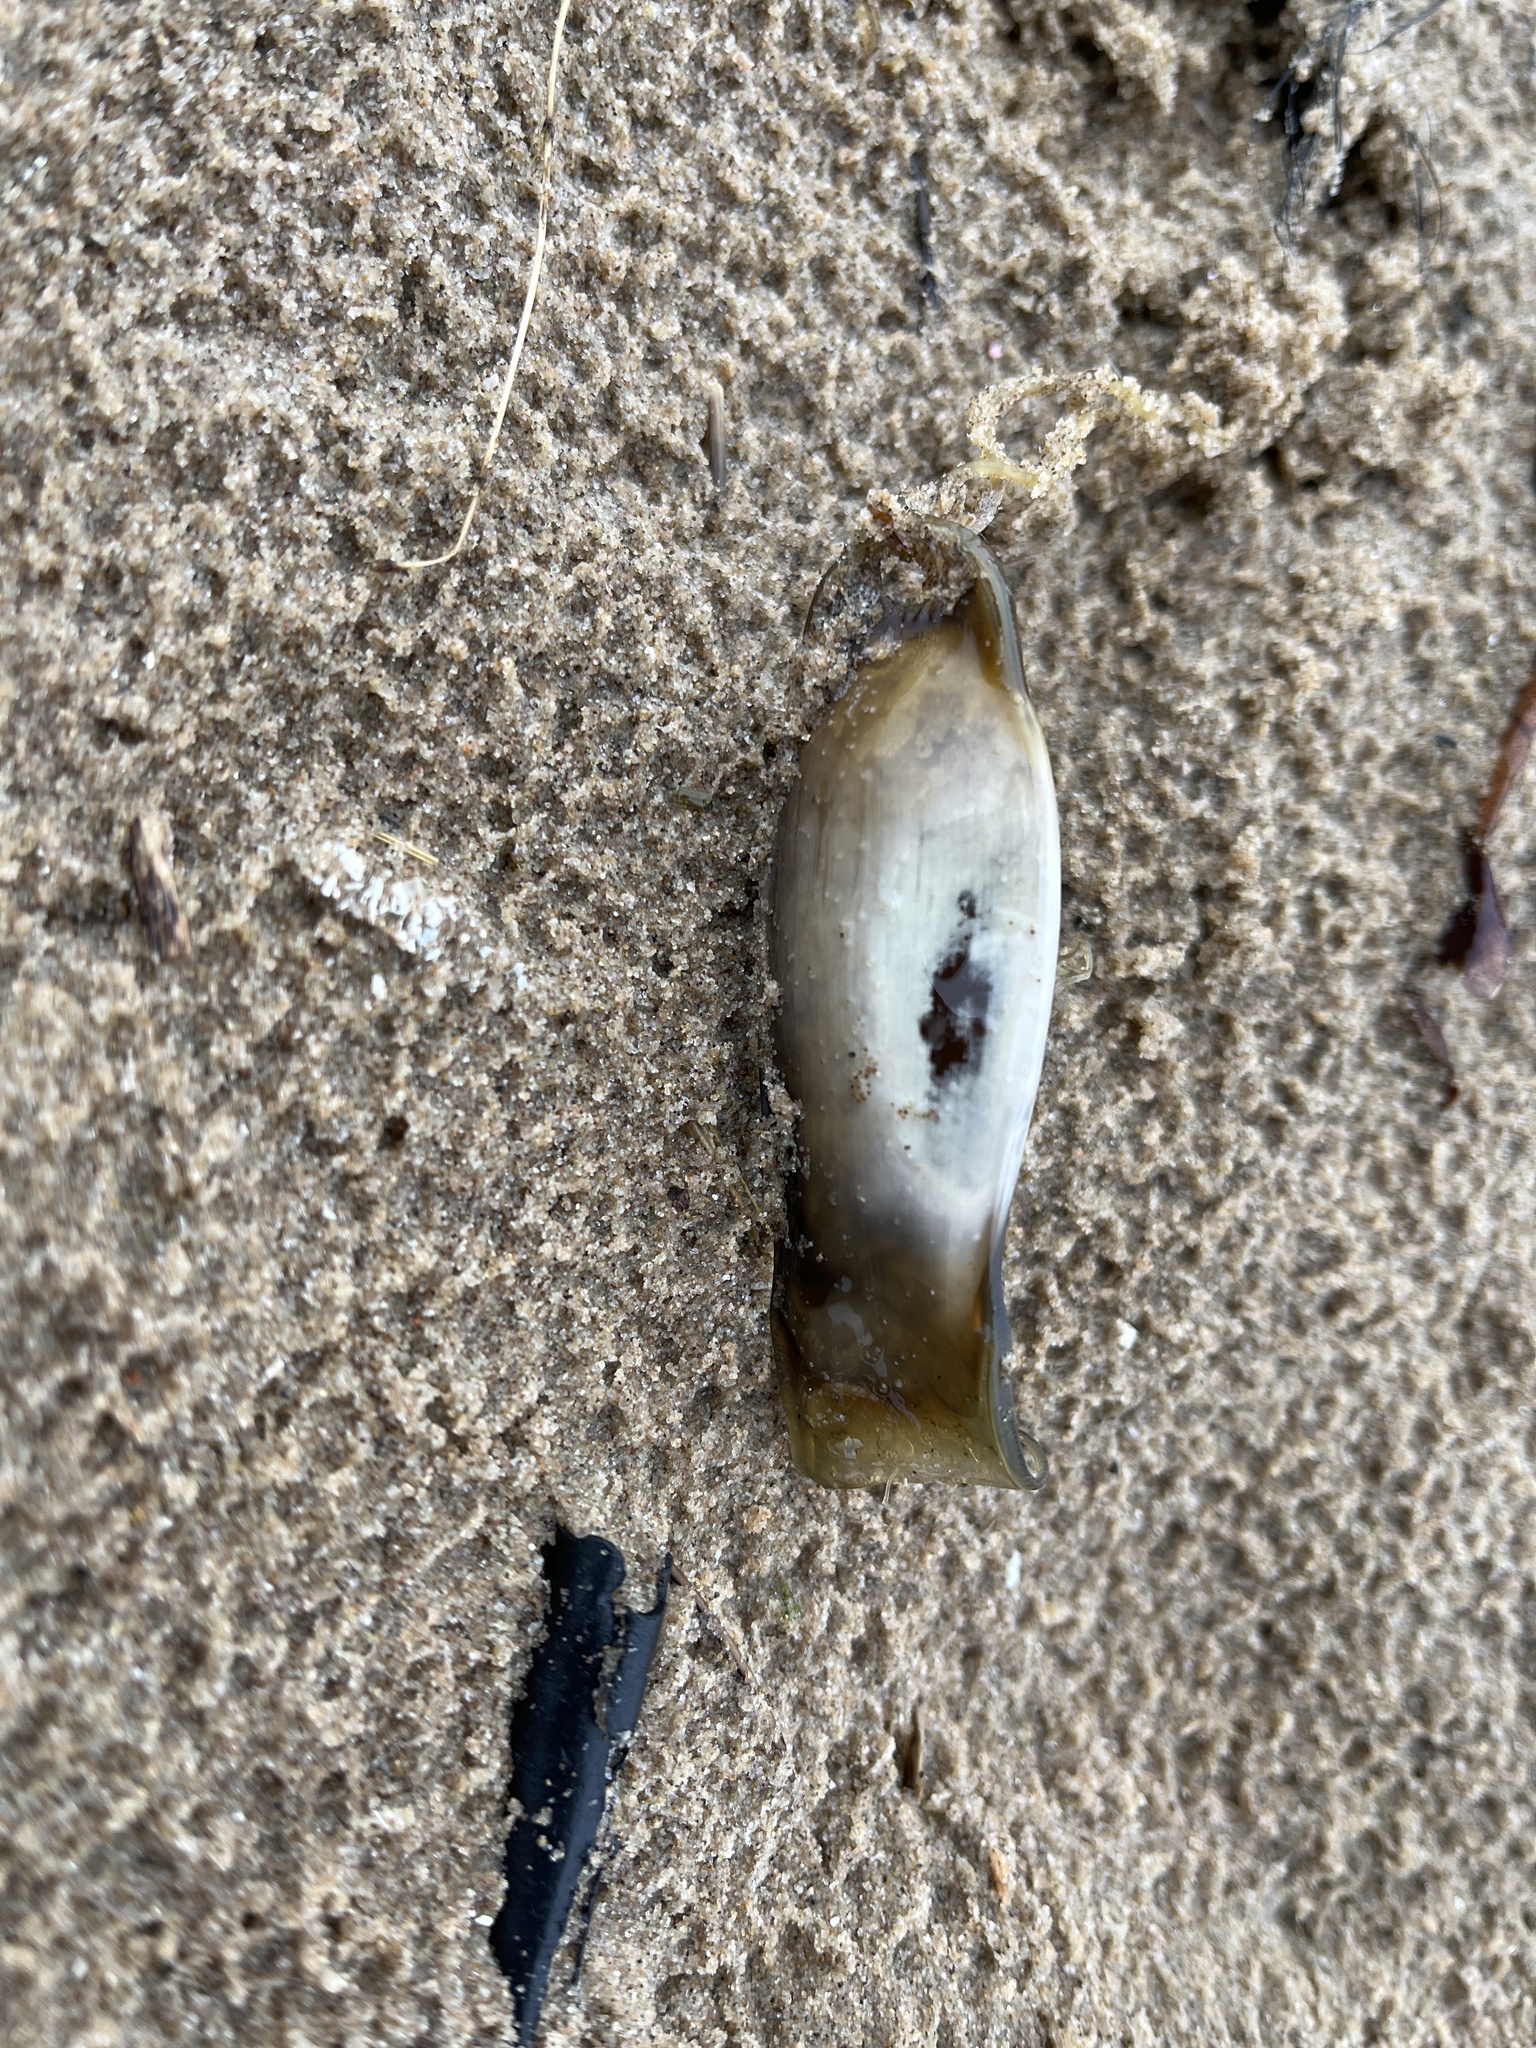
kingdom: Animalia
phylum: Chordata
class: Elasmobranchii
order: Carcharhiniformes
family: Scyliorhinidae
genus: Scyliorhinus
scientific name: Scyliorhinus canicula
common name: Lesser spotted dogfish
